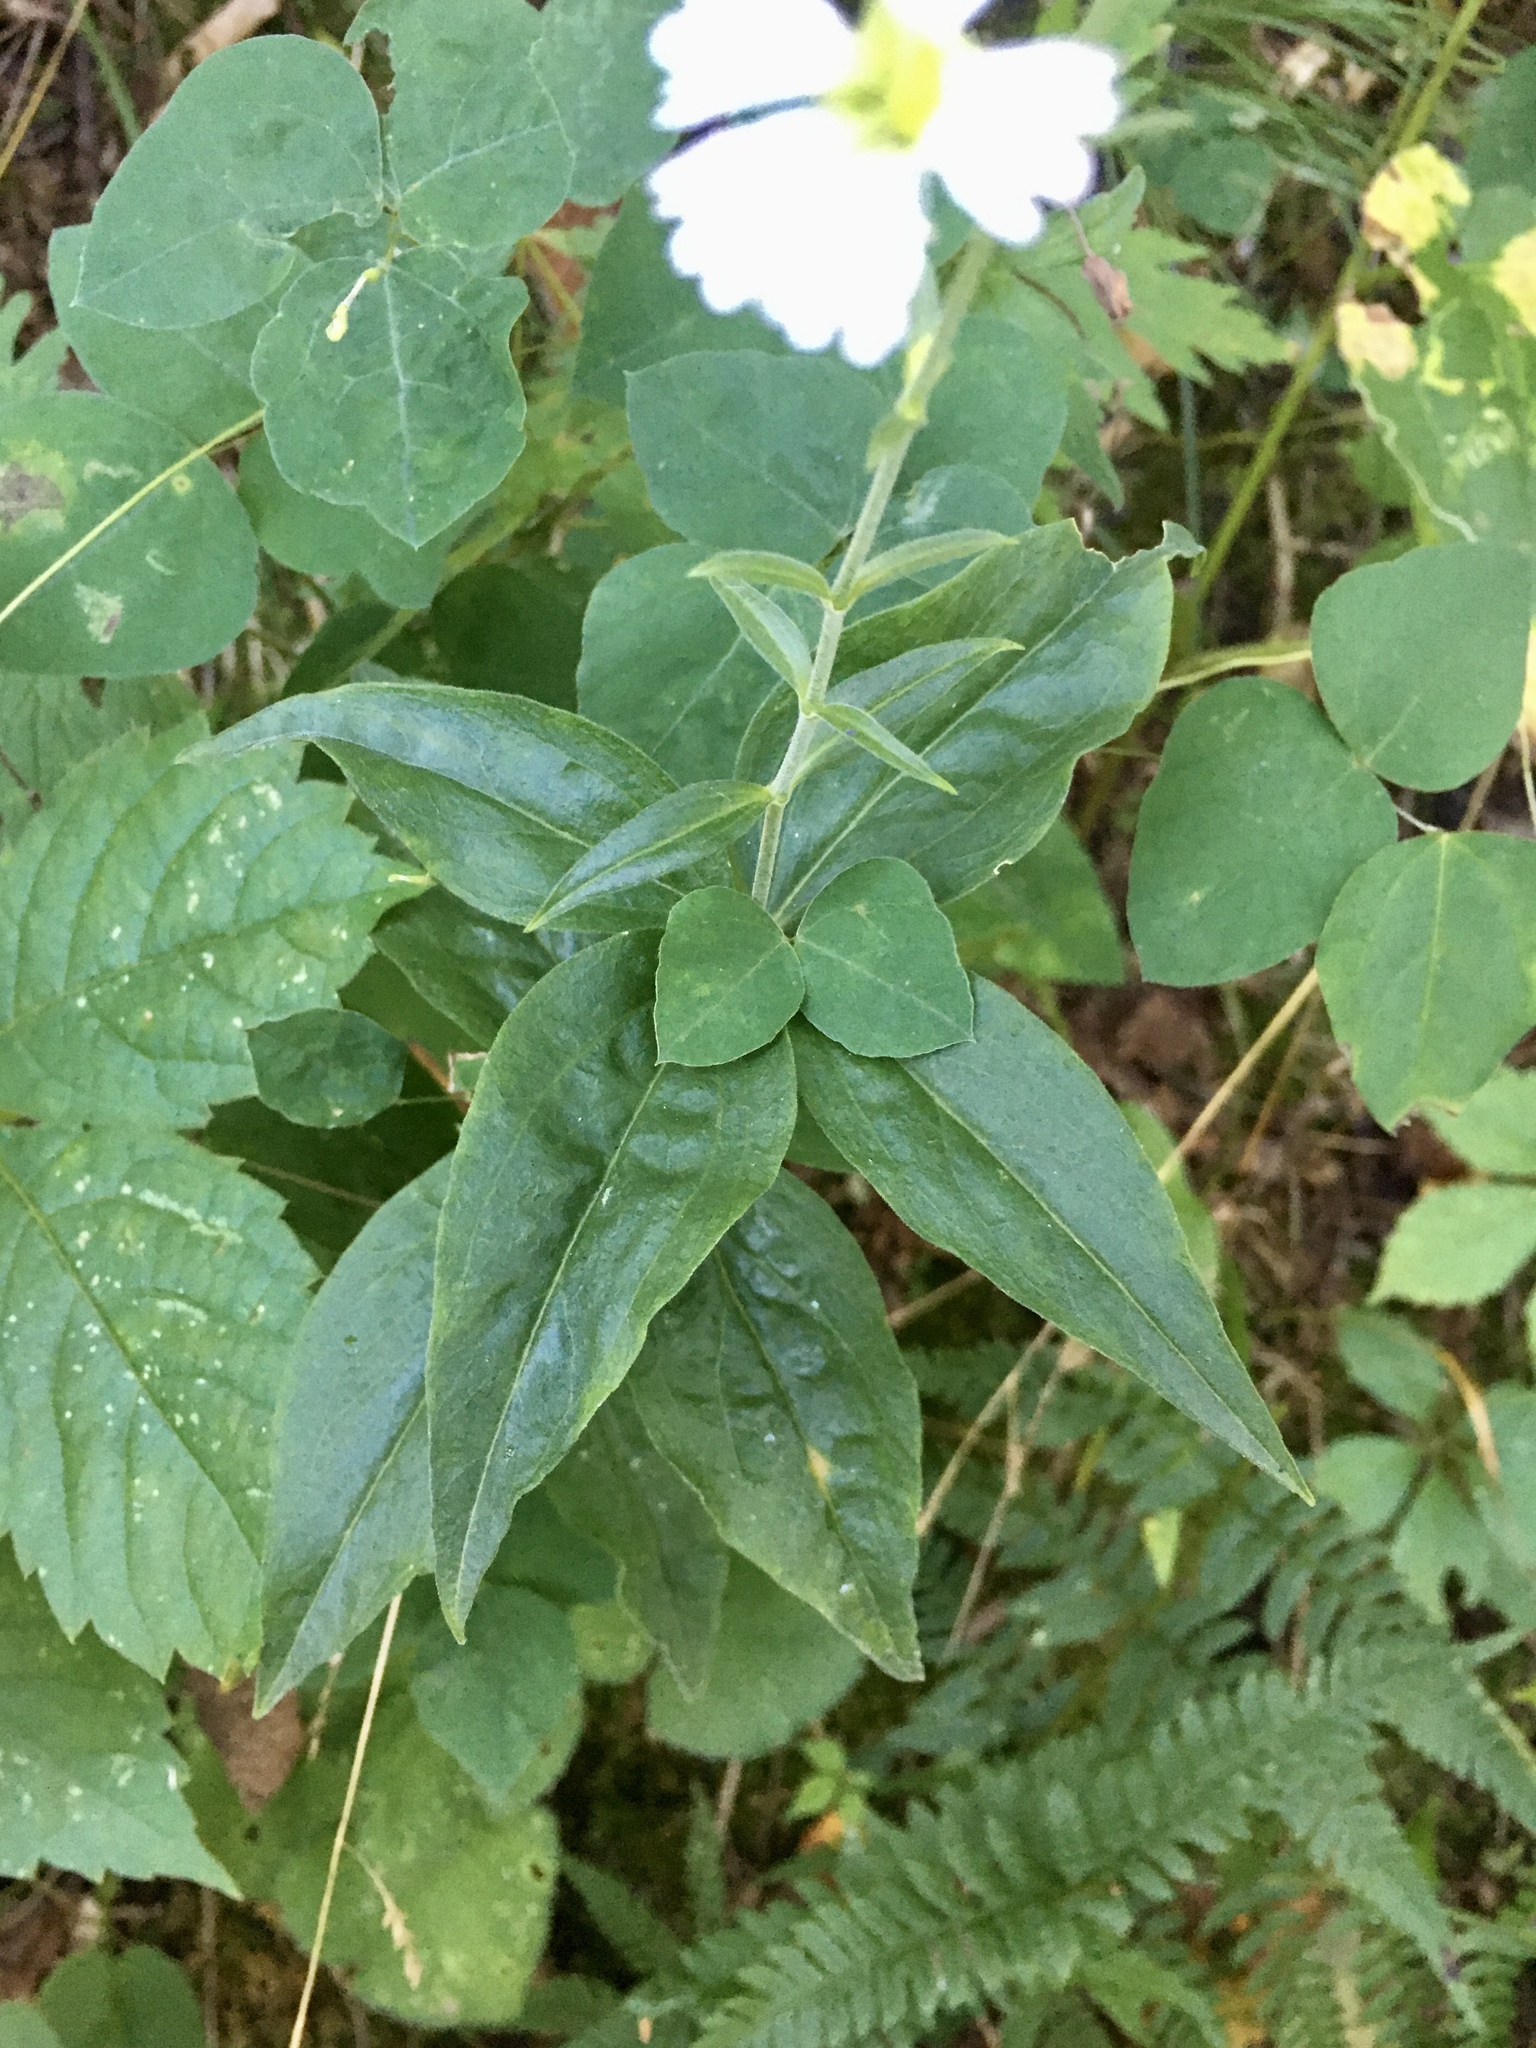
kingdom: Plantae
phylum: Tracheophyta
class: Magnoliopsida
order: Caryophyllales
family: Caryophyllaceae
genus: Silene
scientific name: Silene stellata
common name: Starry campion
